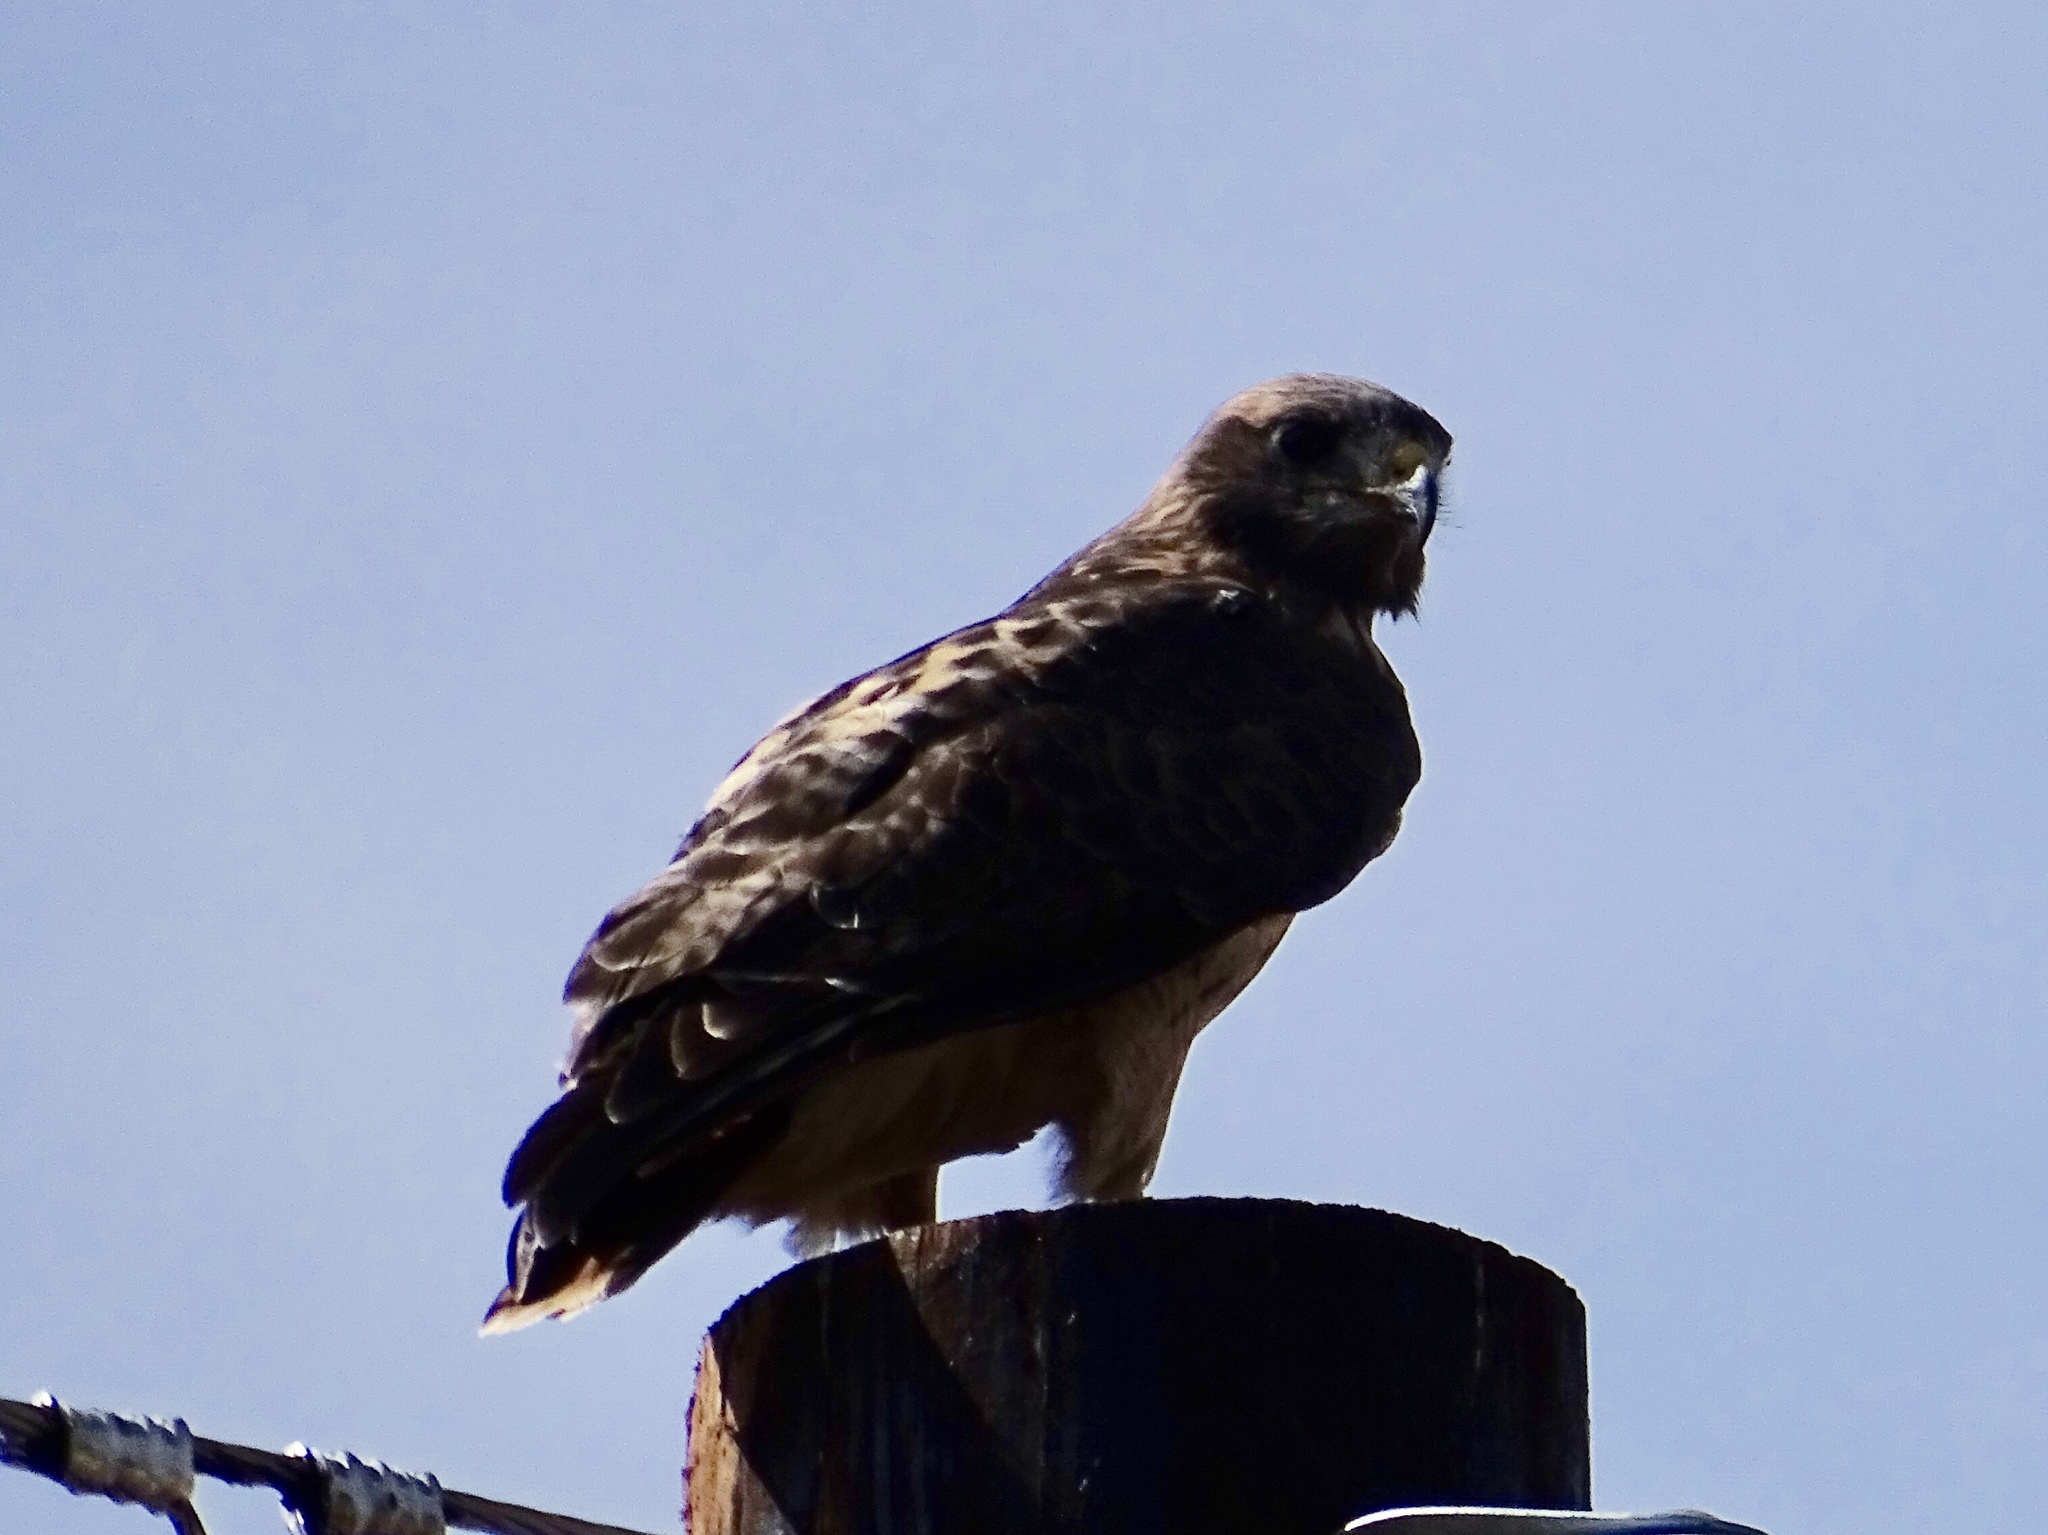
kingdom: Animalia
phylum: Chordata
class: Aves
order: Accipitriformes
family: Accipitridae
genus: Buteo
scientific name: Buteo jamaicensis
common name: Red-tailed hawk
